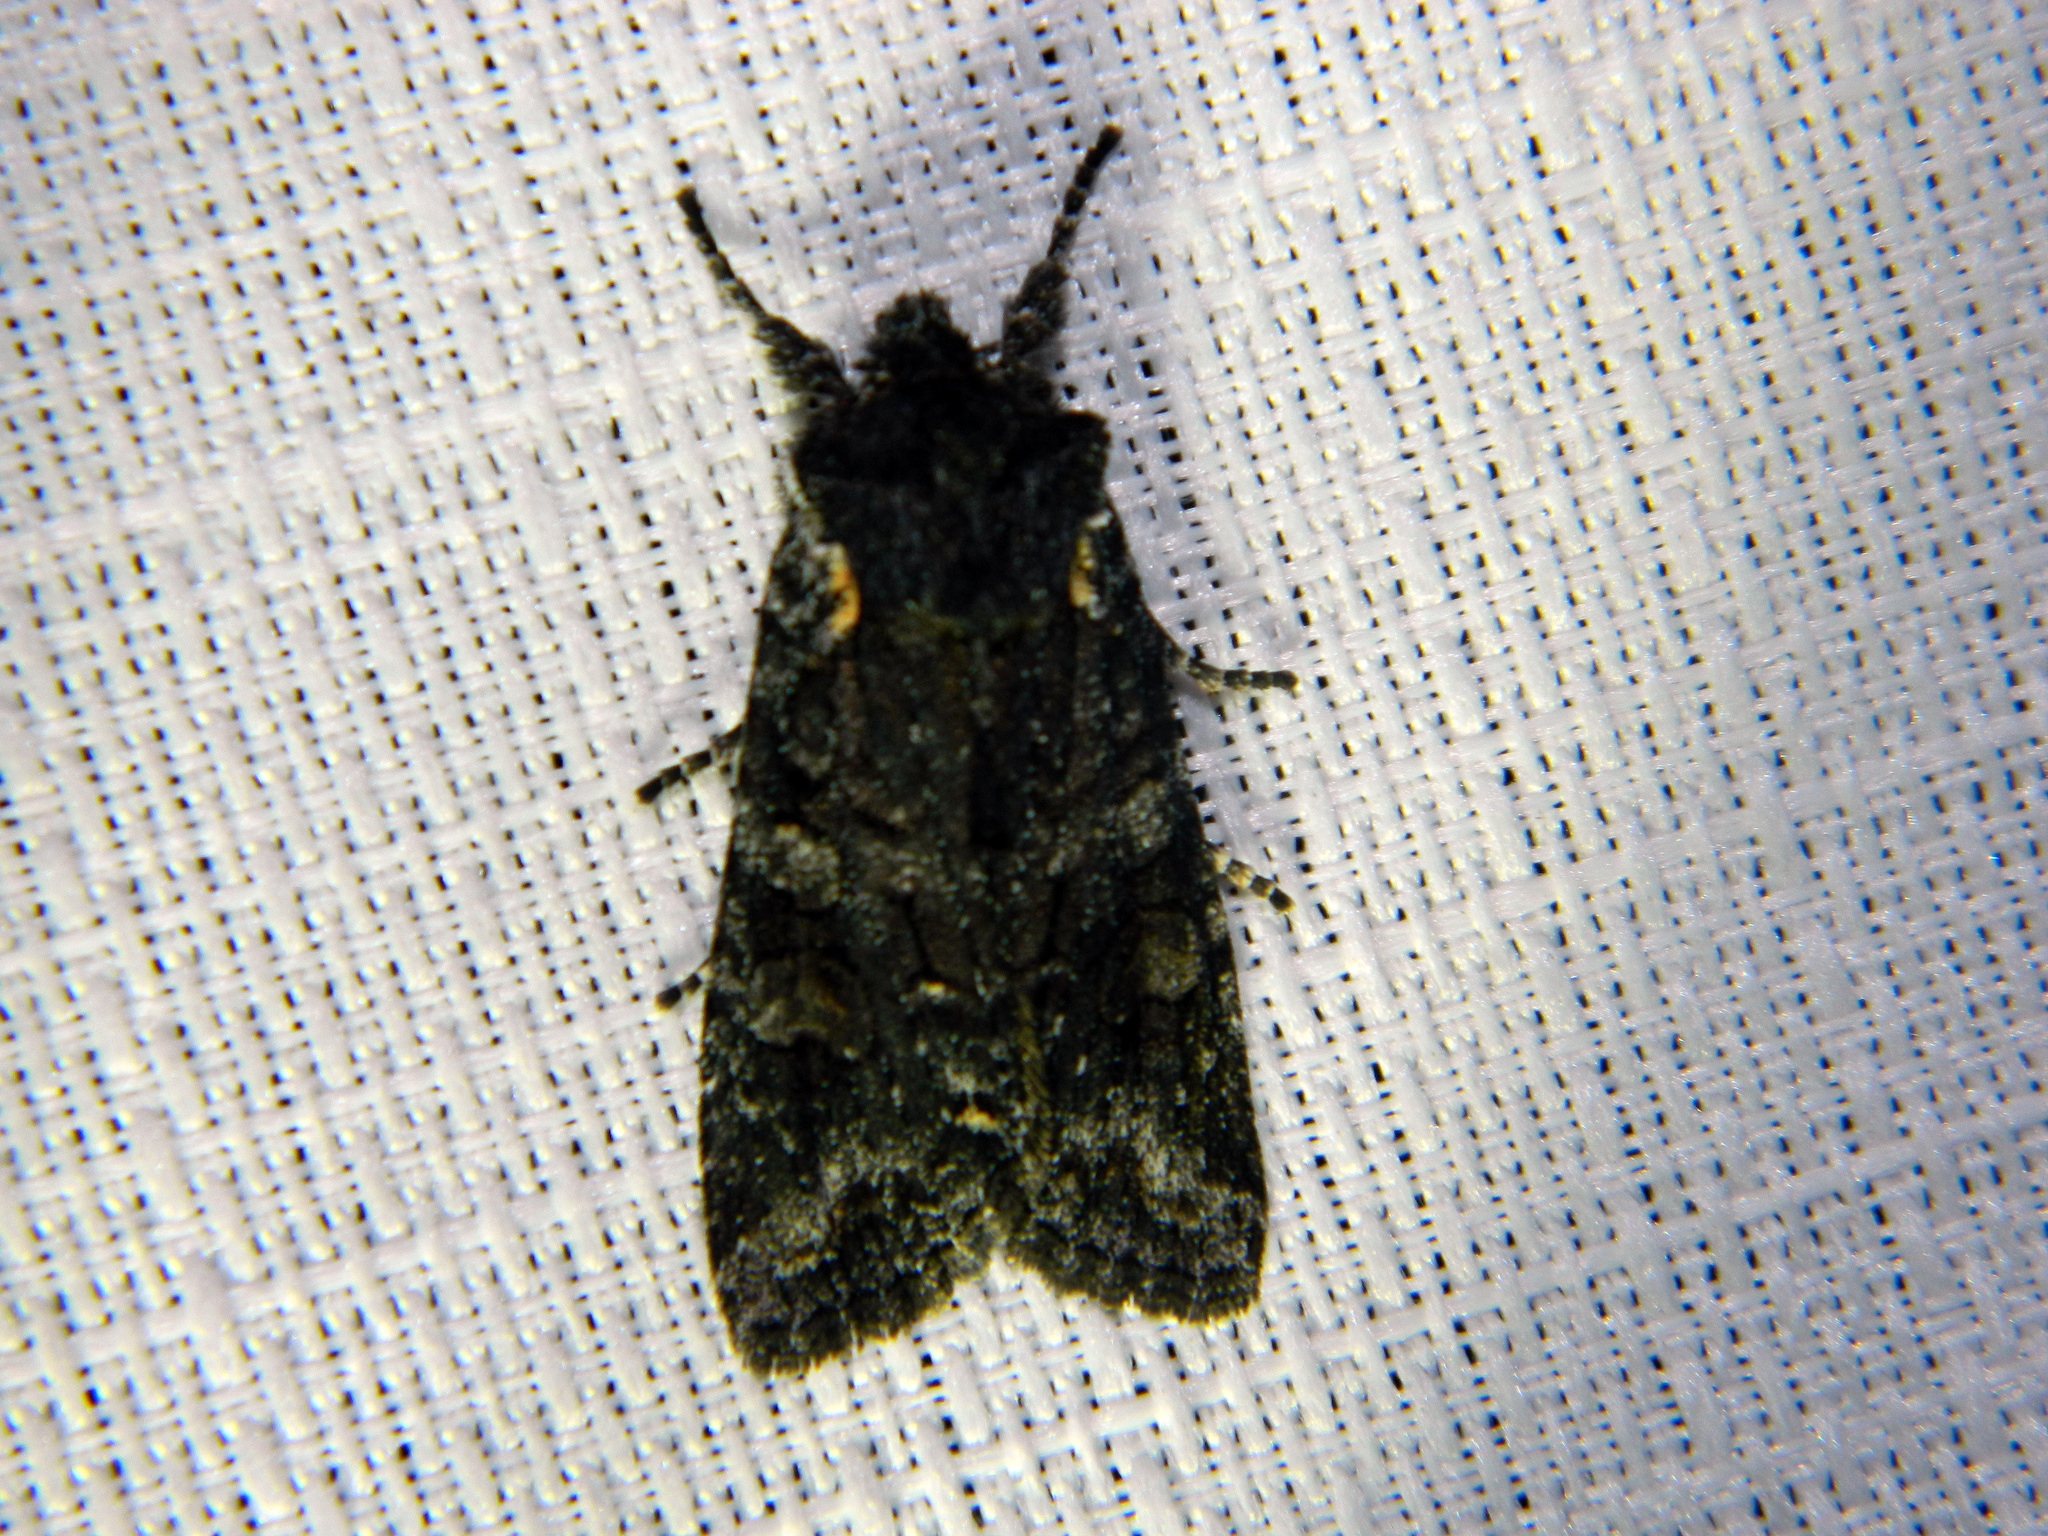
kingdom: Animalia
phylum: Arthropoda
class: Insecta
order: Lepidoptera
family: Noctuidae
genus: Lithophane
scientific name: Lithophane pexata
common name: Plush-naped pinion moth
